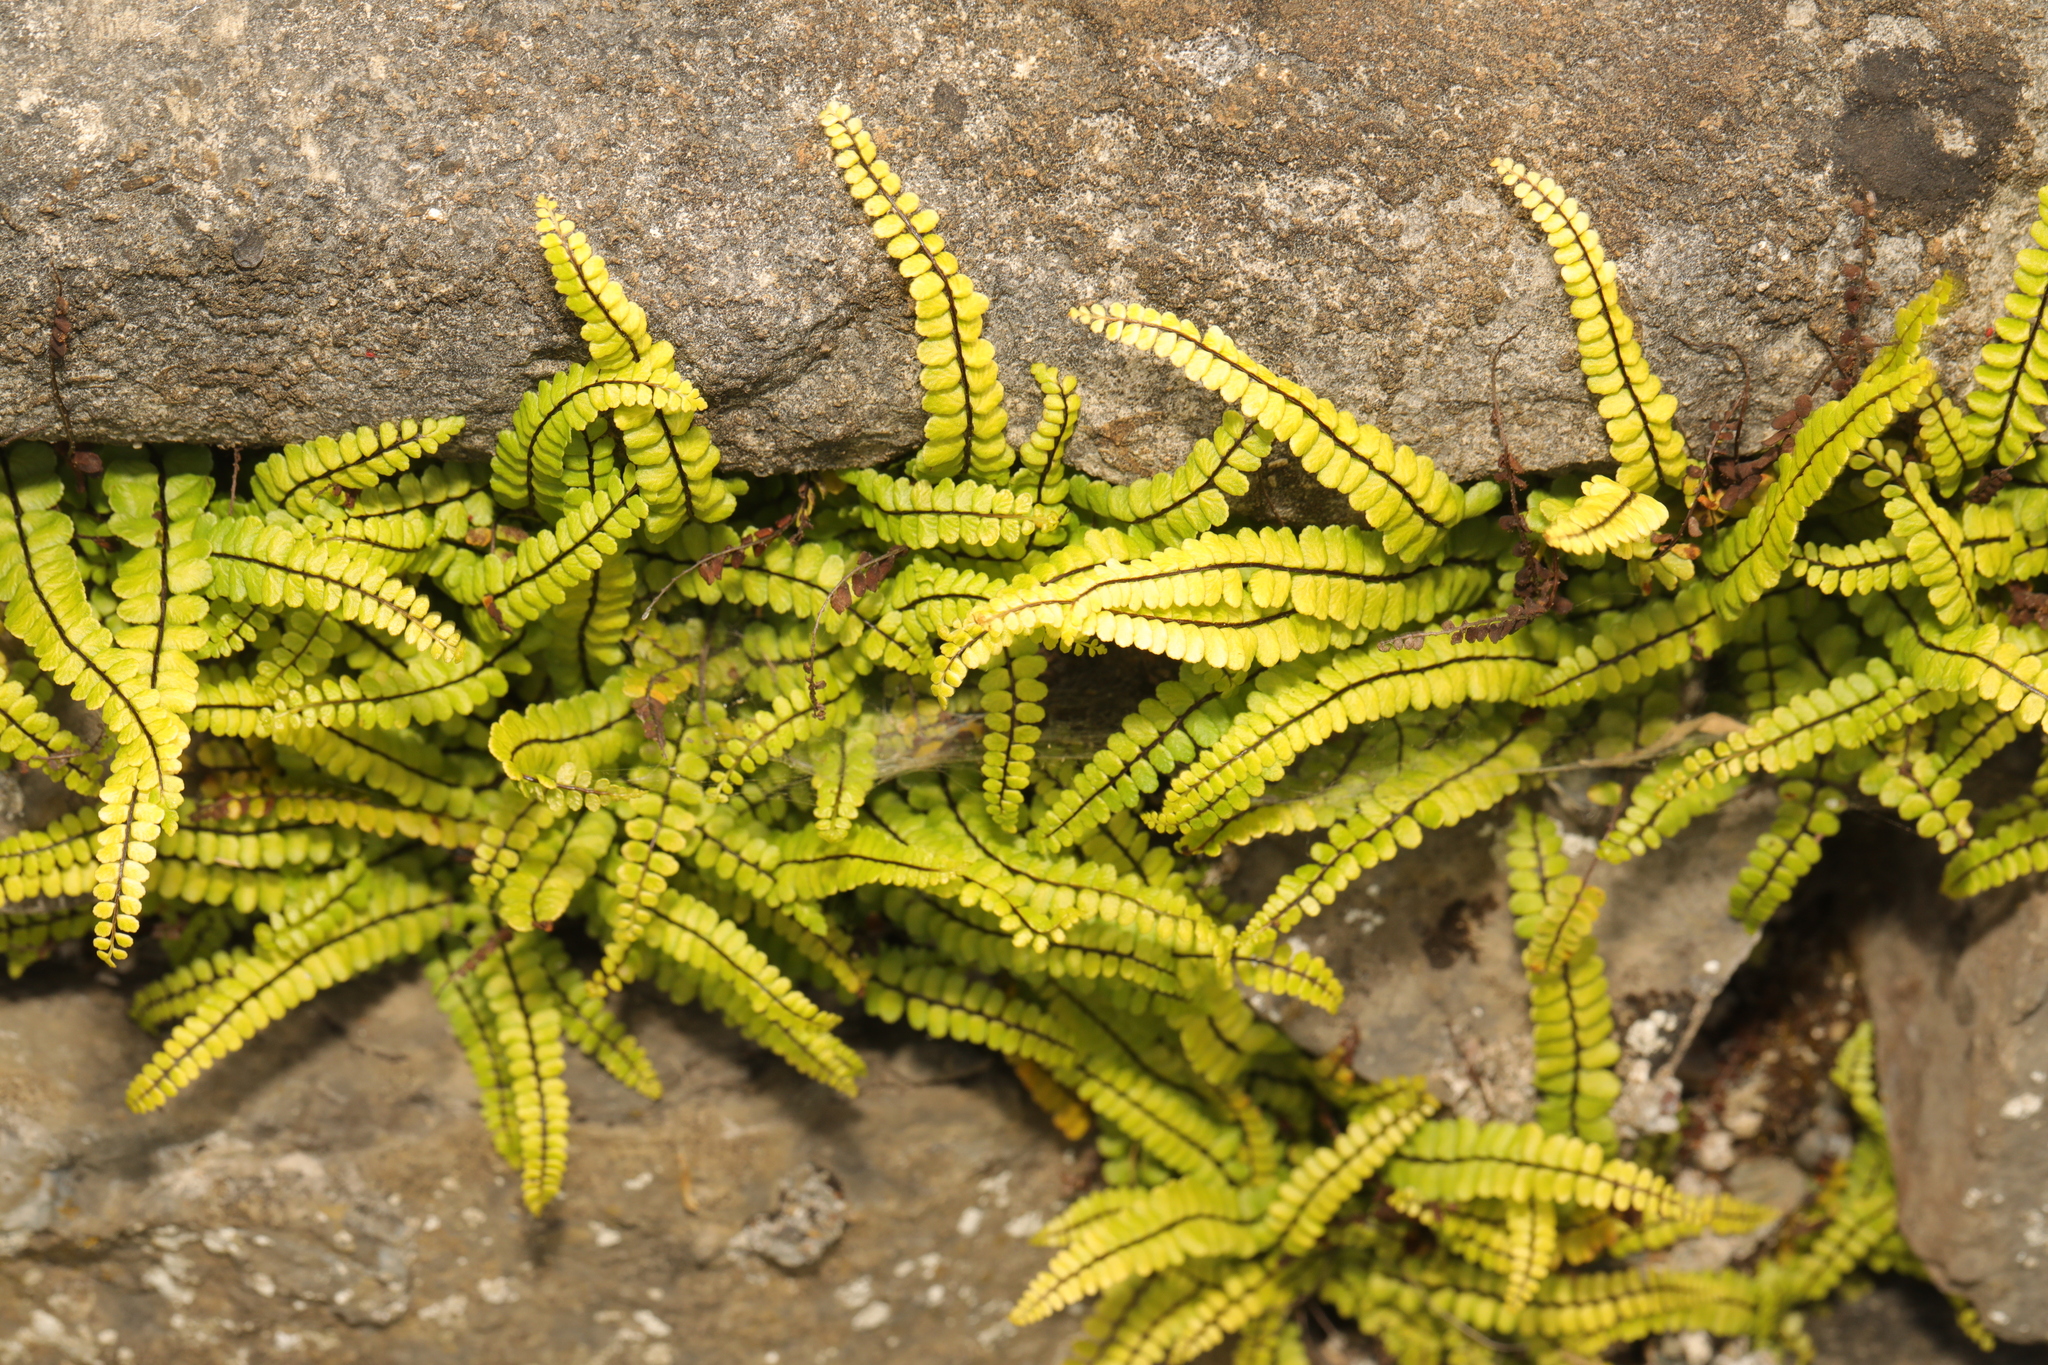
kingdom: Plantae
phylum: Tracheophyta
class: Polypodiopsida
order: Polypodiales
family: Aspleniaceae
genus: Asplenium
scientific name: Asplenium trichomanes
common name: Maidenhair spleenwort
